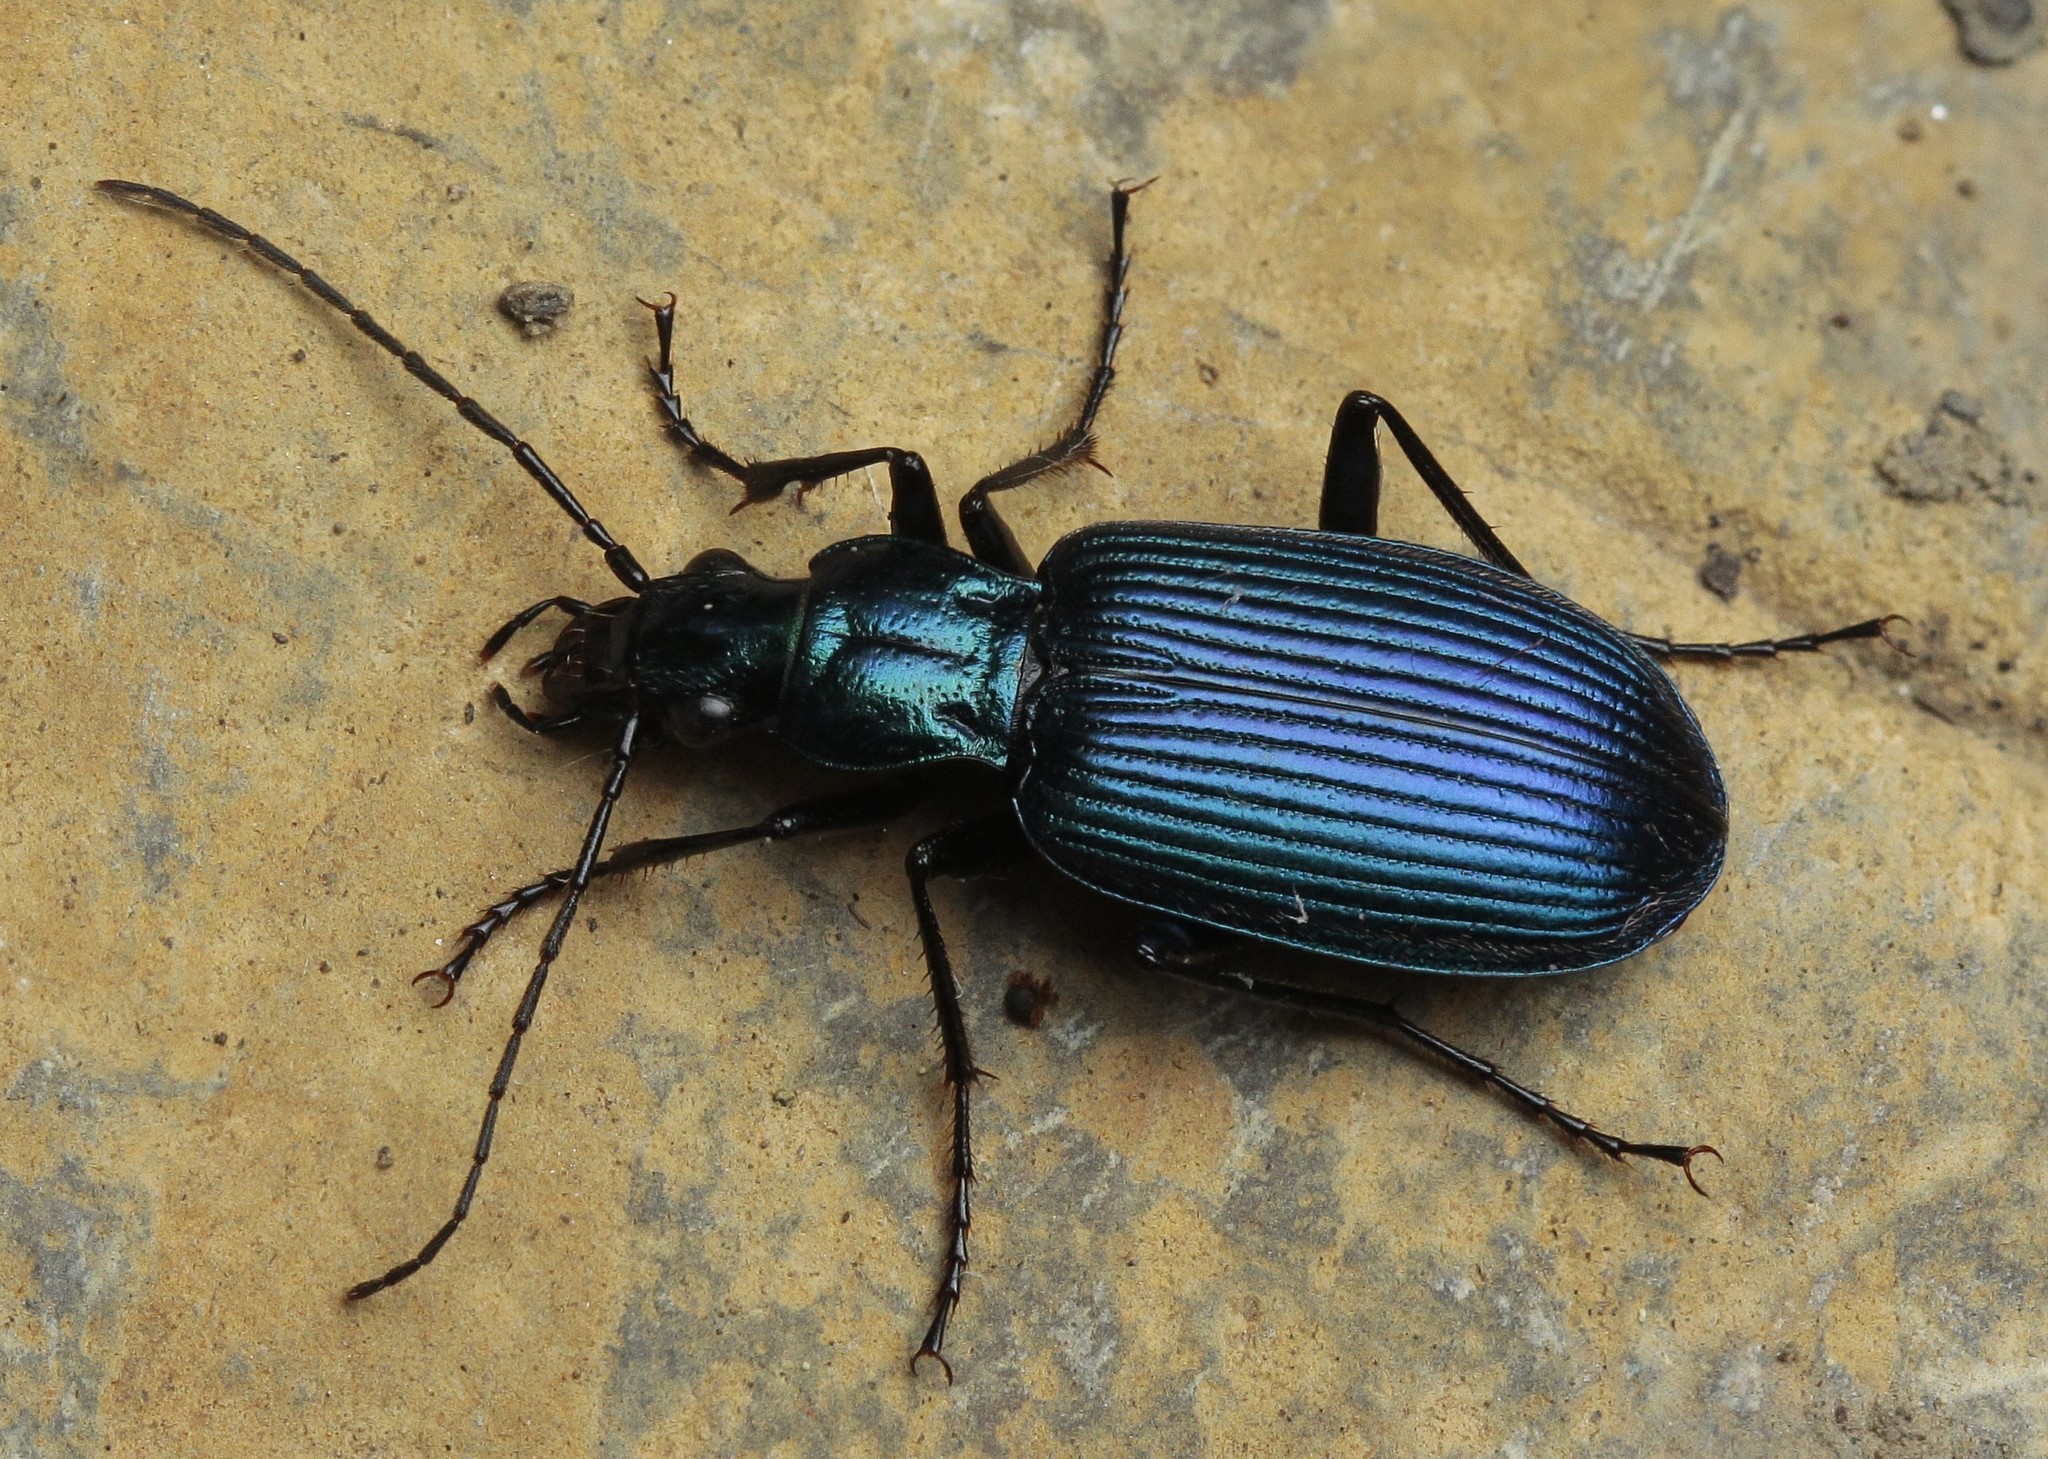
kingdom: Animalia
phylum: Arthropoda
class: Insecta
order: Coleoptera
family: Carabidae
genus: Chlaenius
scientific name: Chlaenius coeruleus
